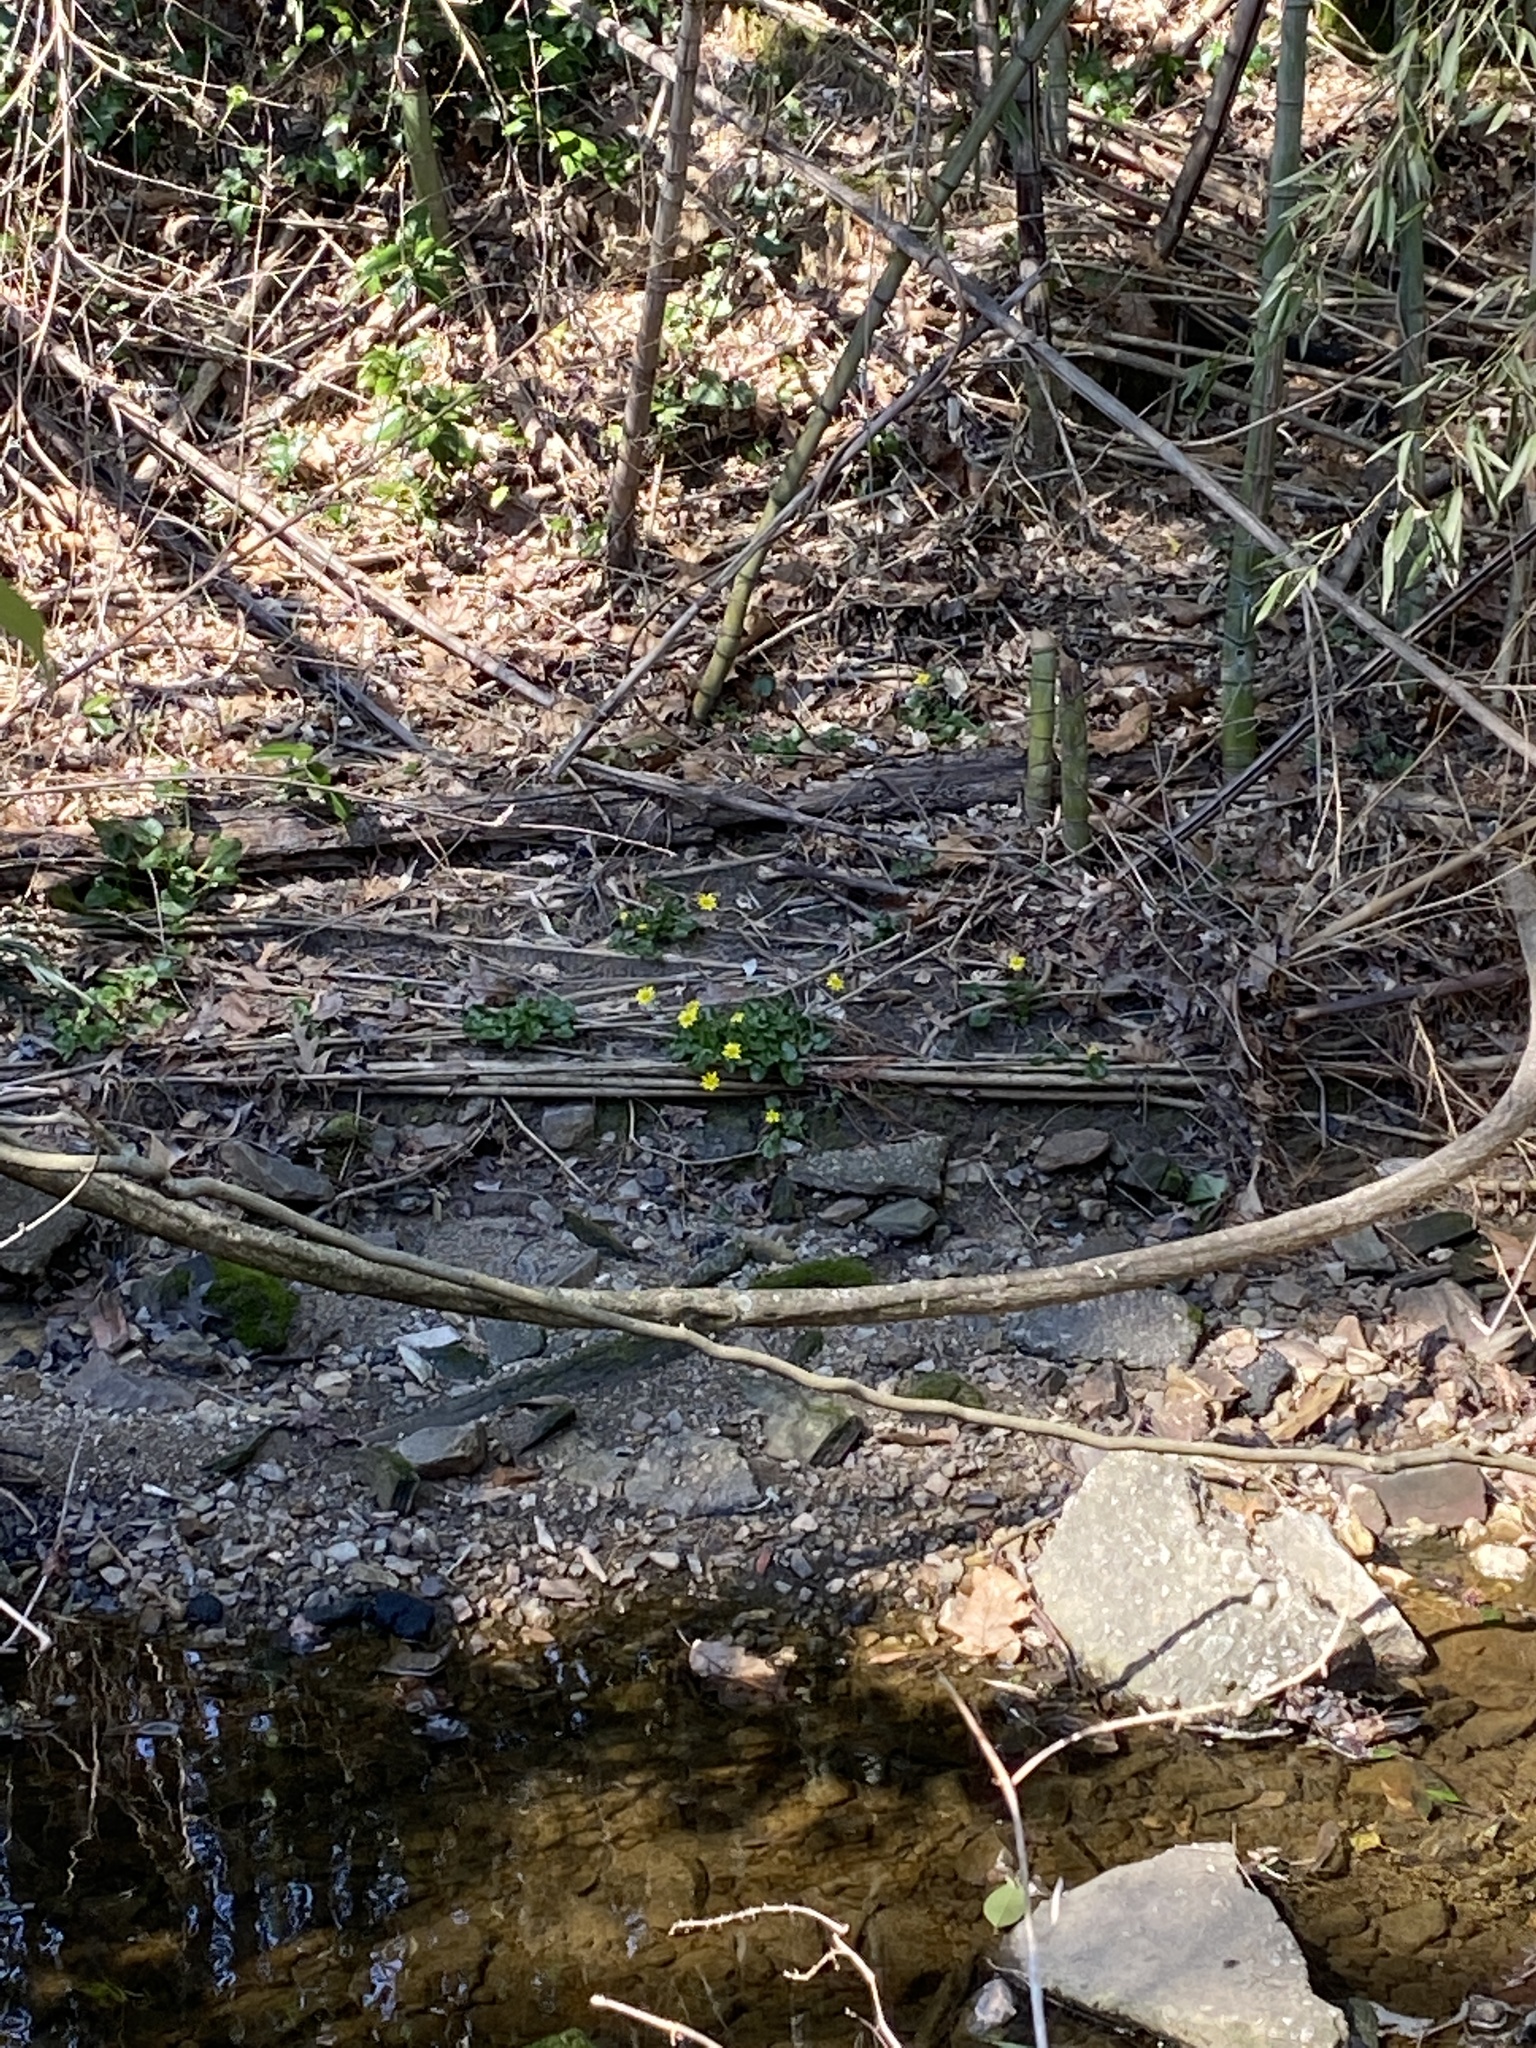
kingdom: Plantae
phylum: Tracheophyta
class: Magnoliopsida
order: Ranunculales
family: Ranunculaceae
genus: Ficaria
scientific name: Ficaria verna
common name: Lesser celandine
